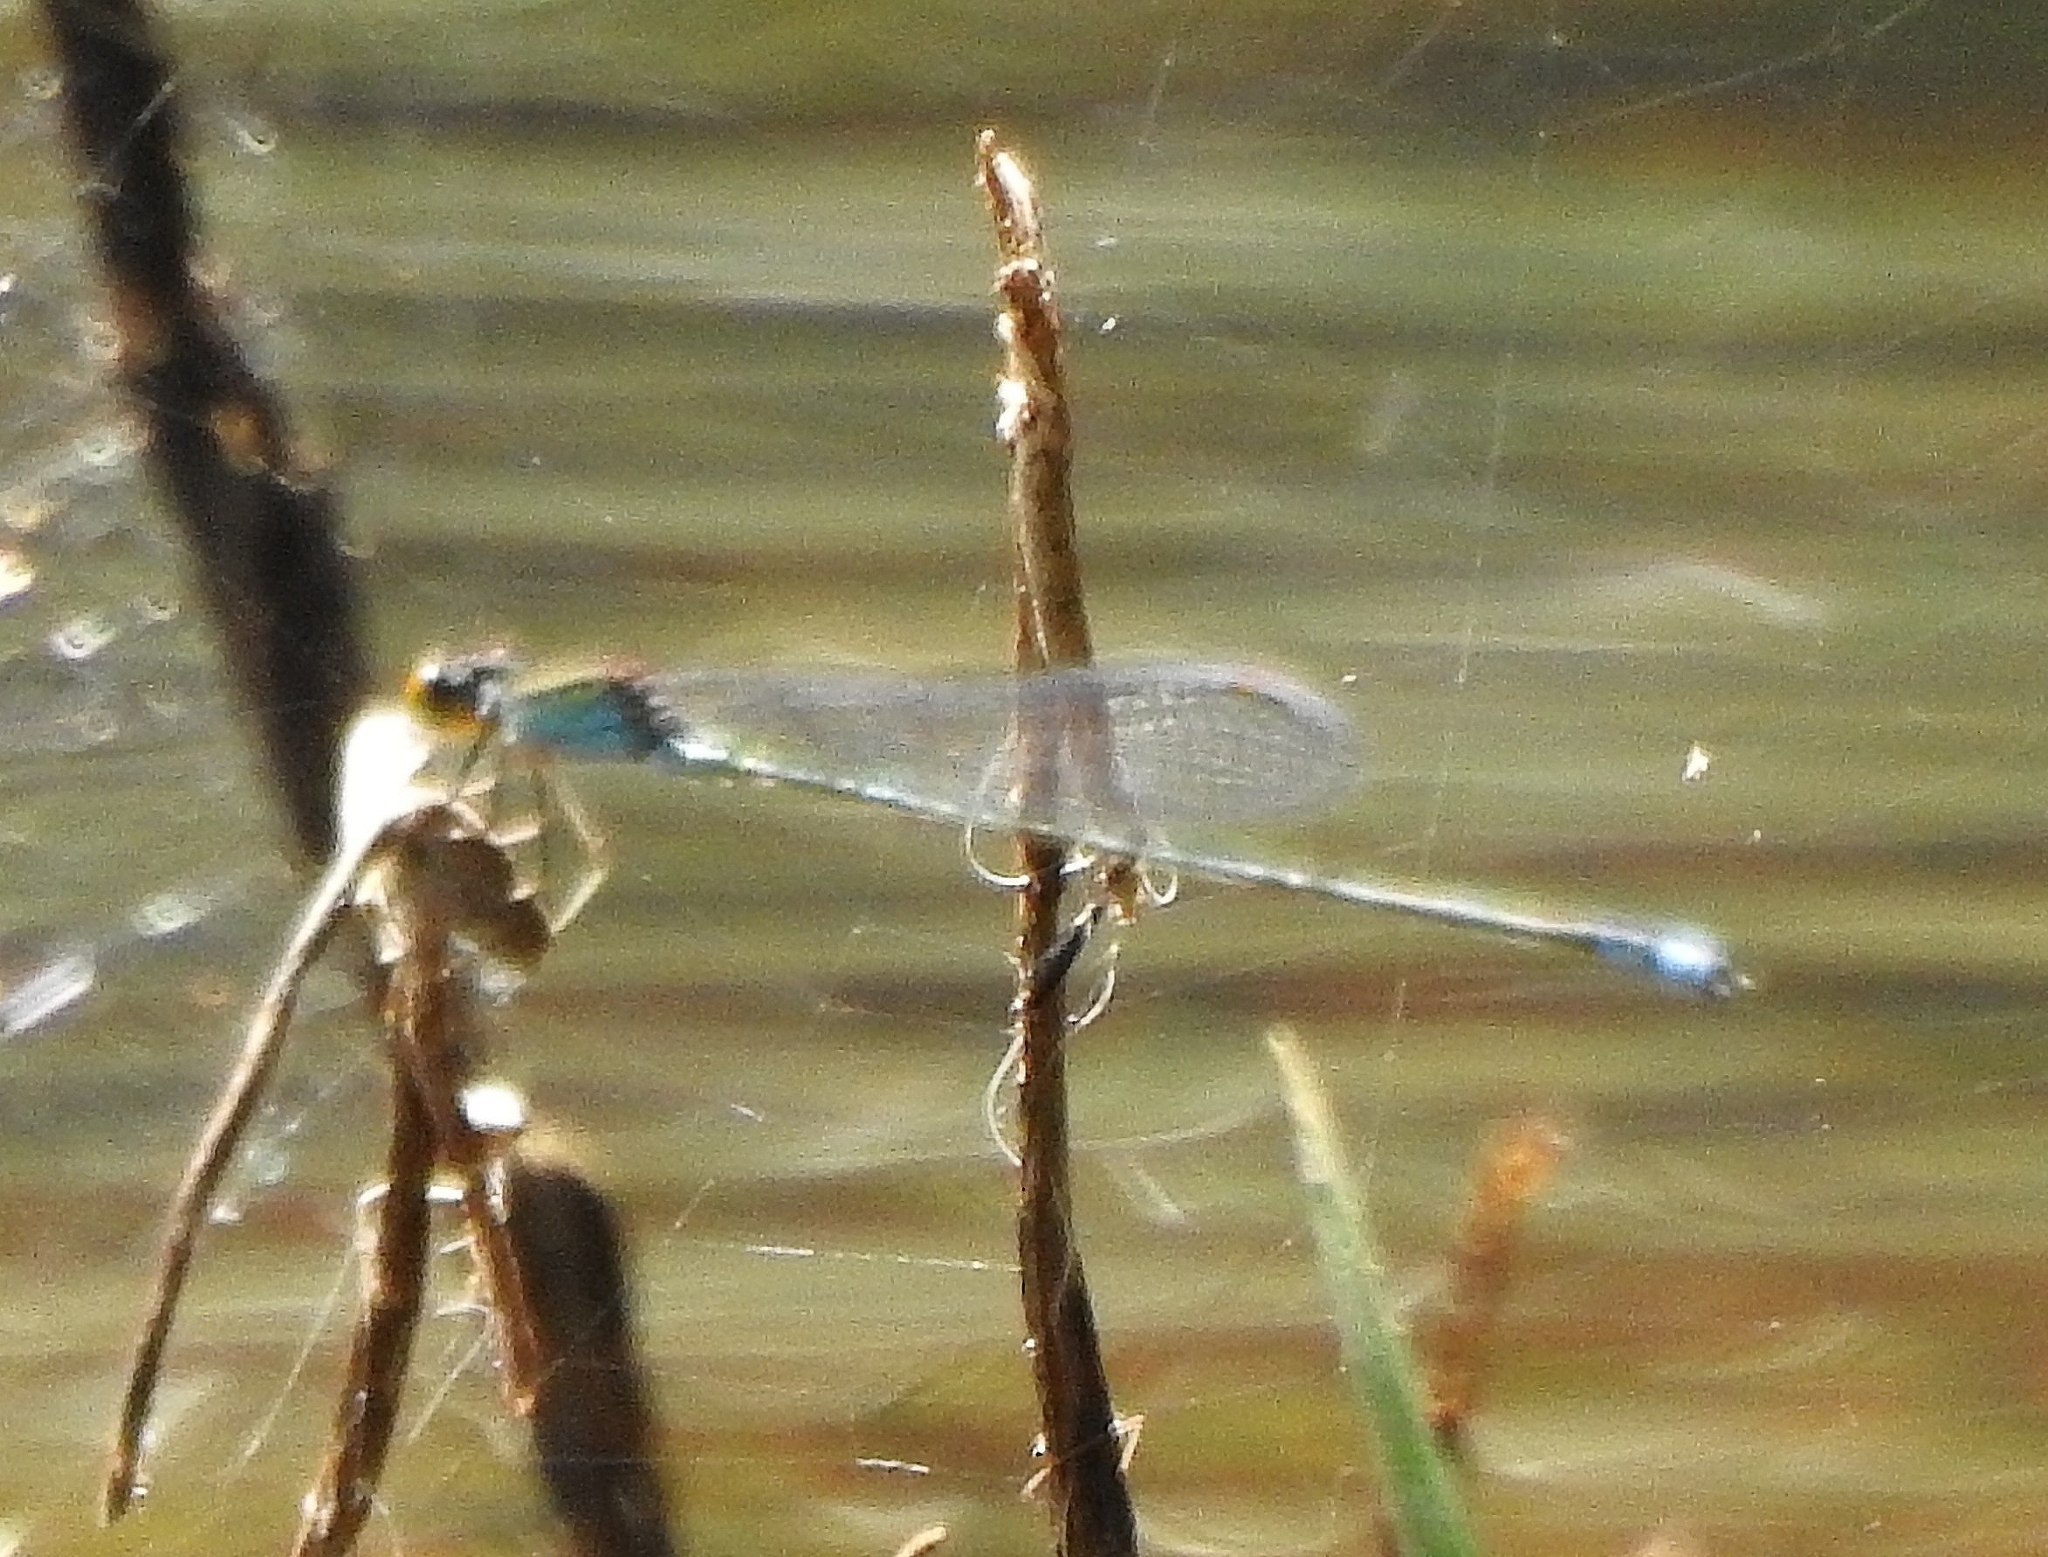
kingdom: Animalia
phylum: Arthropoda
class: Insecta
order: Odonata
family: Coenagrionidae
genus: Pseudagrion
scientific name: Pseudagrion rubriceps
